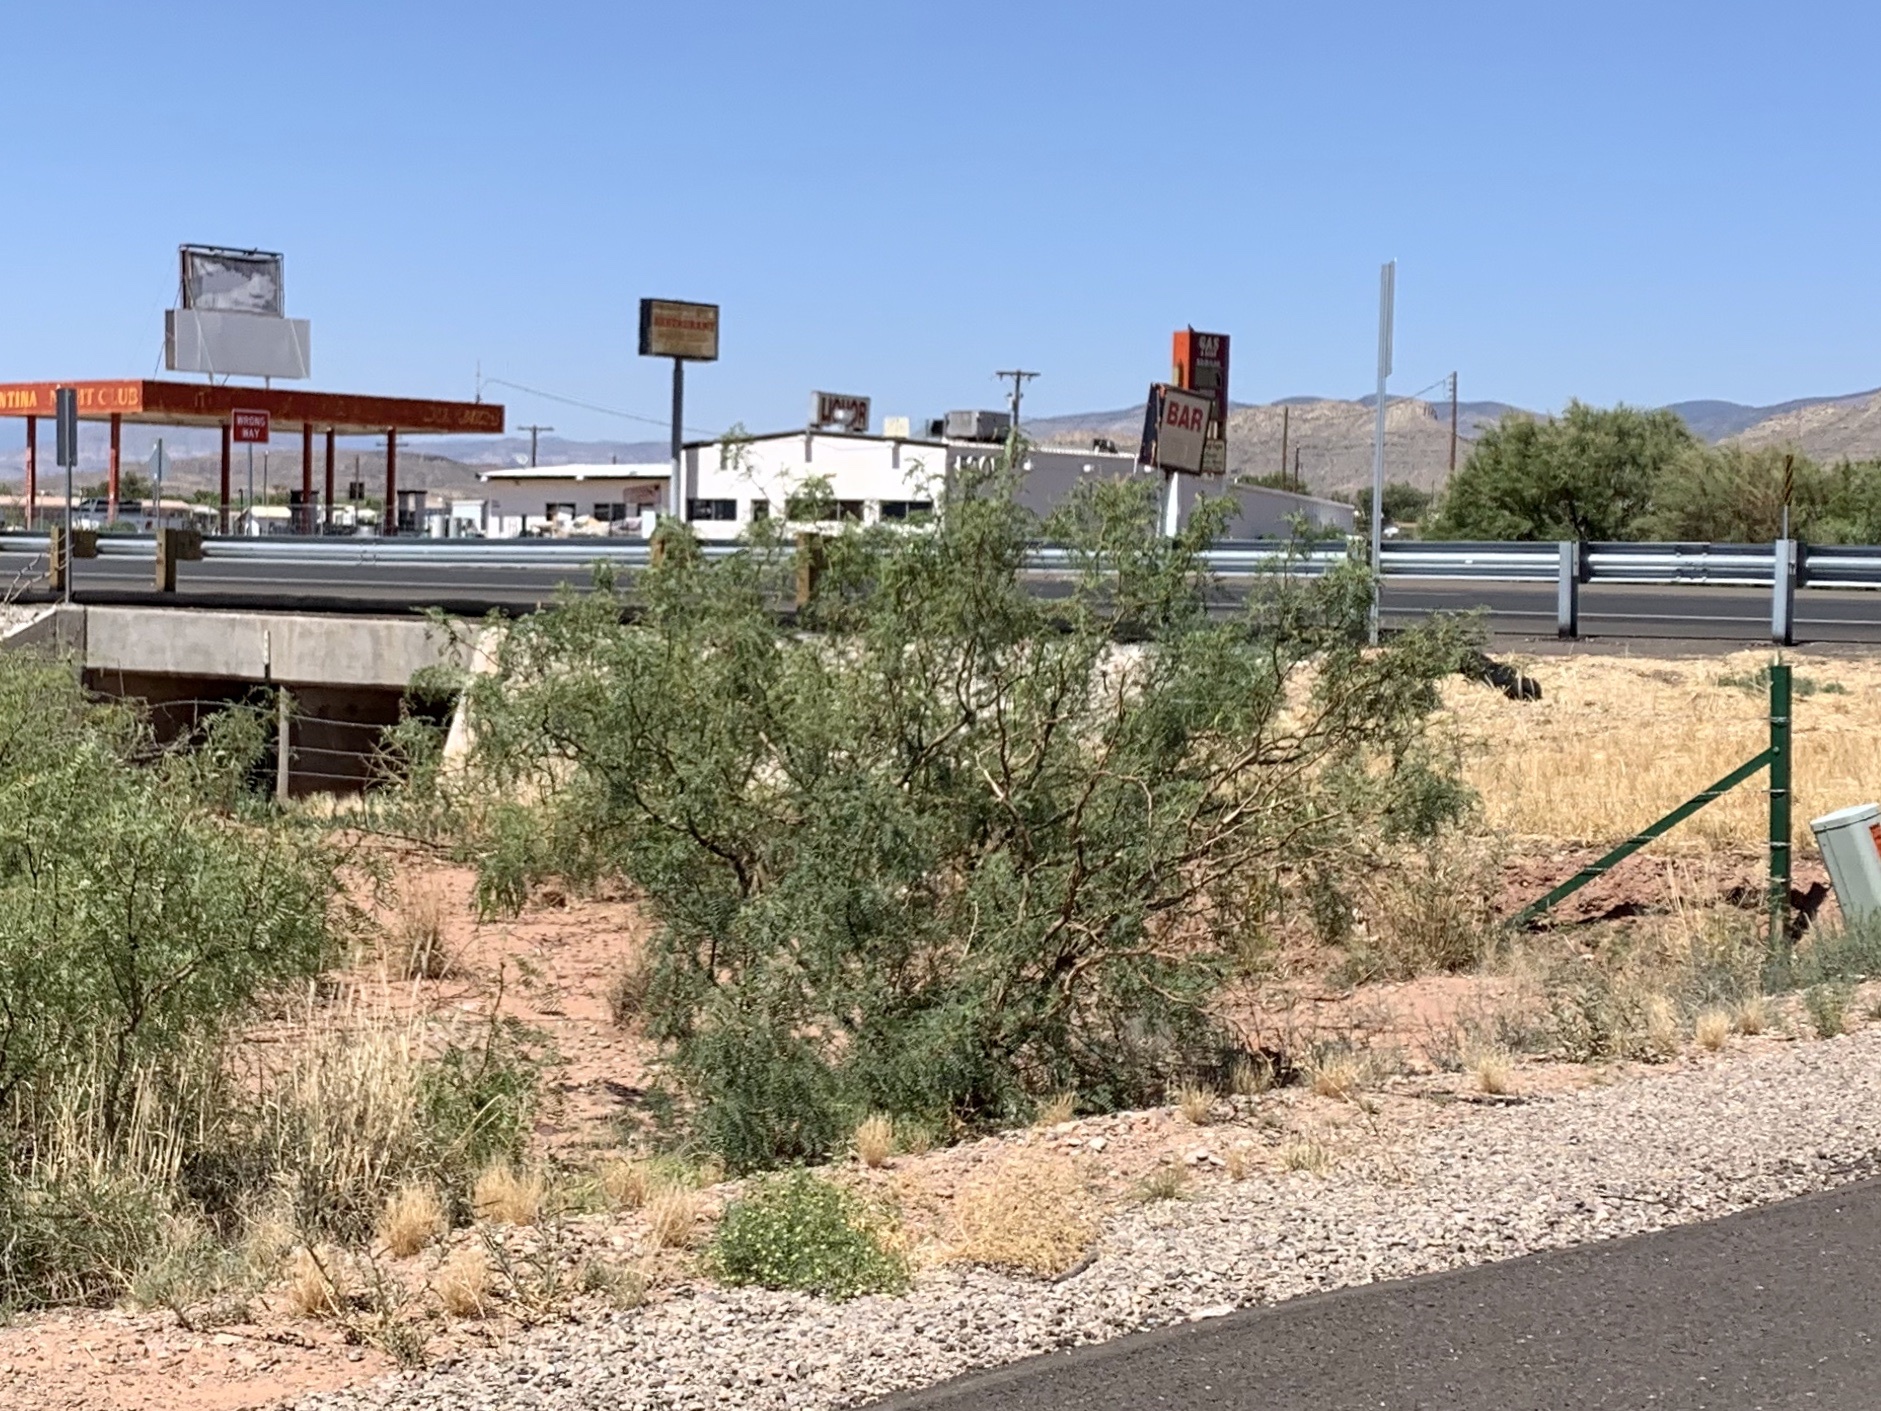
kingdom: Plantae
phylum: Tracheophyta
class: Magnoliopsida
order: Fabales
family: Fabaceae
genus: Prosopis
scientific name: Prosopis glandulosa
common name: Honey mesquite
